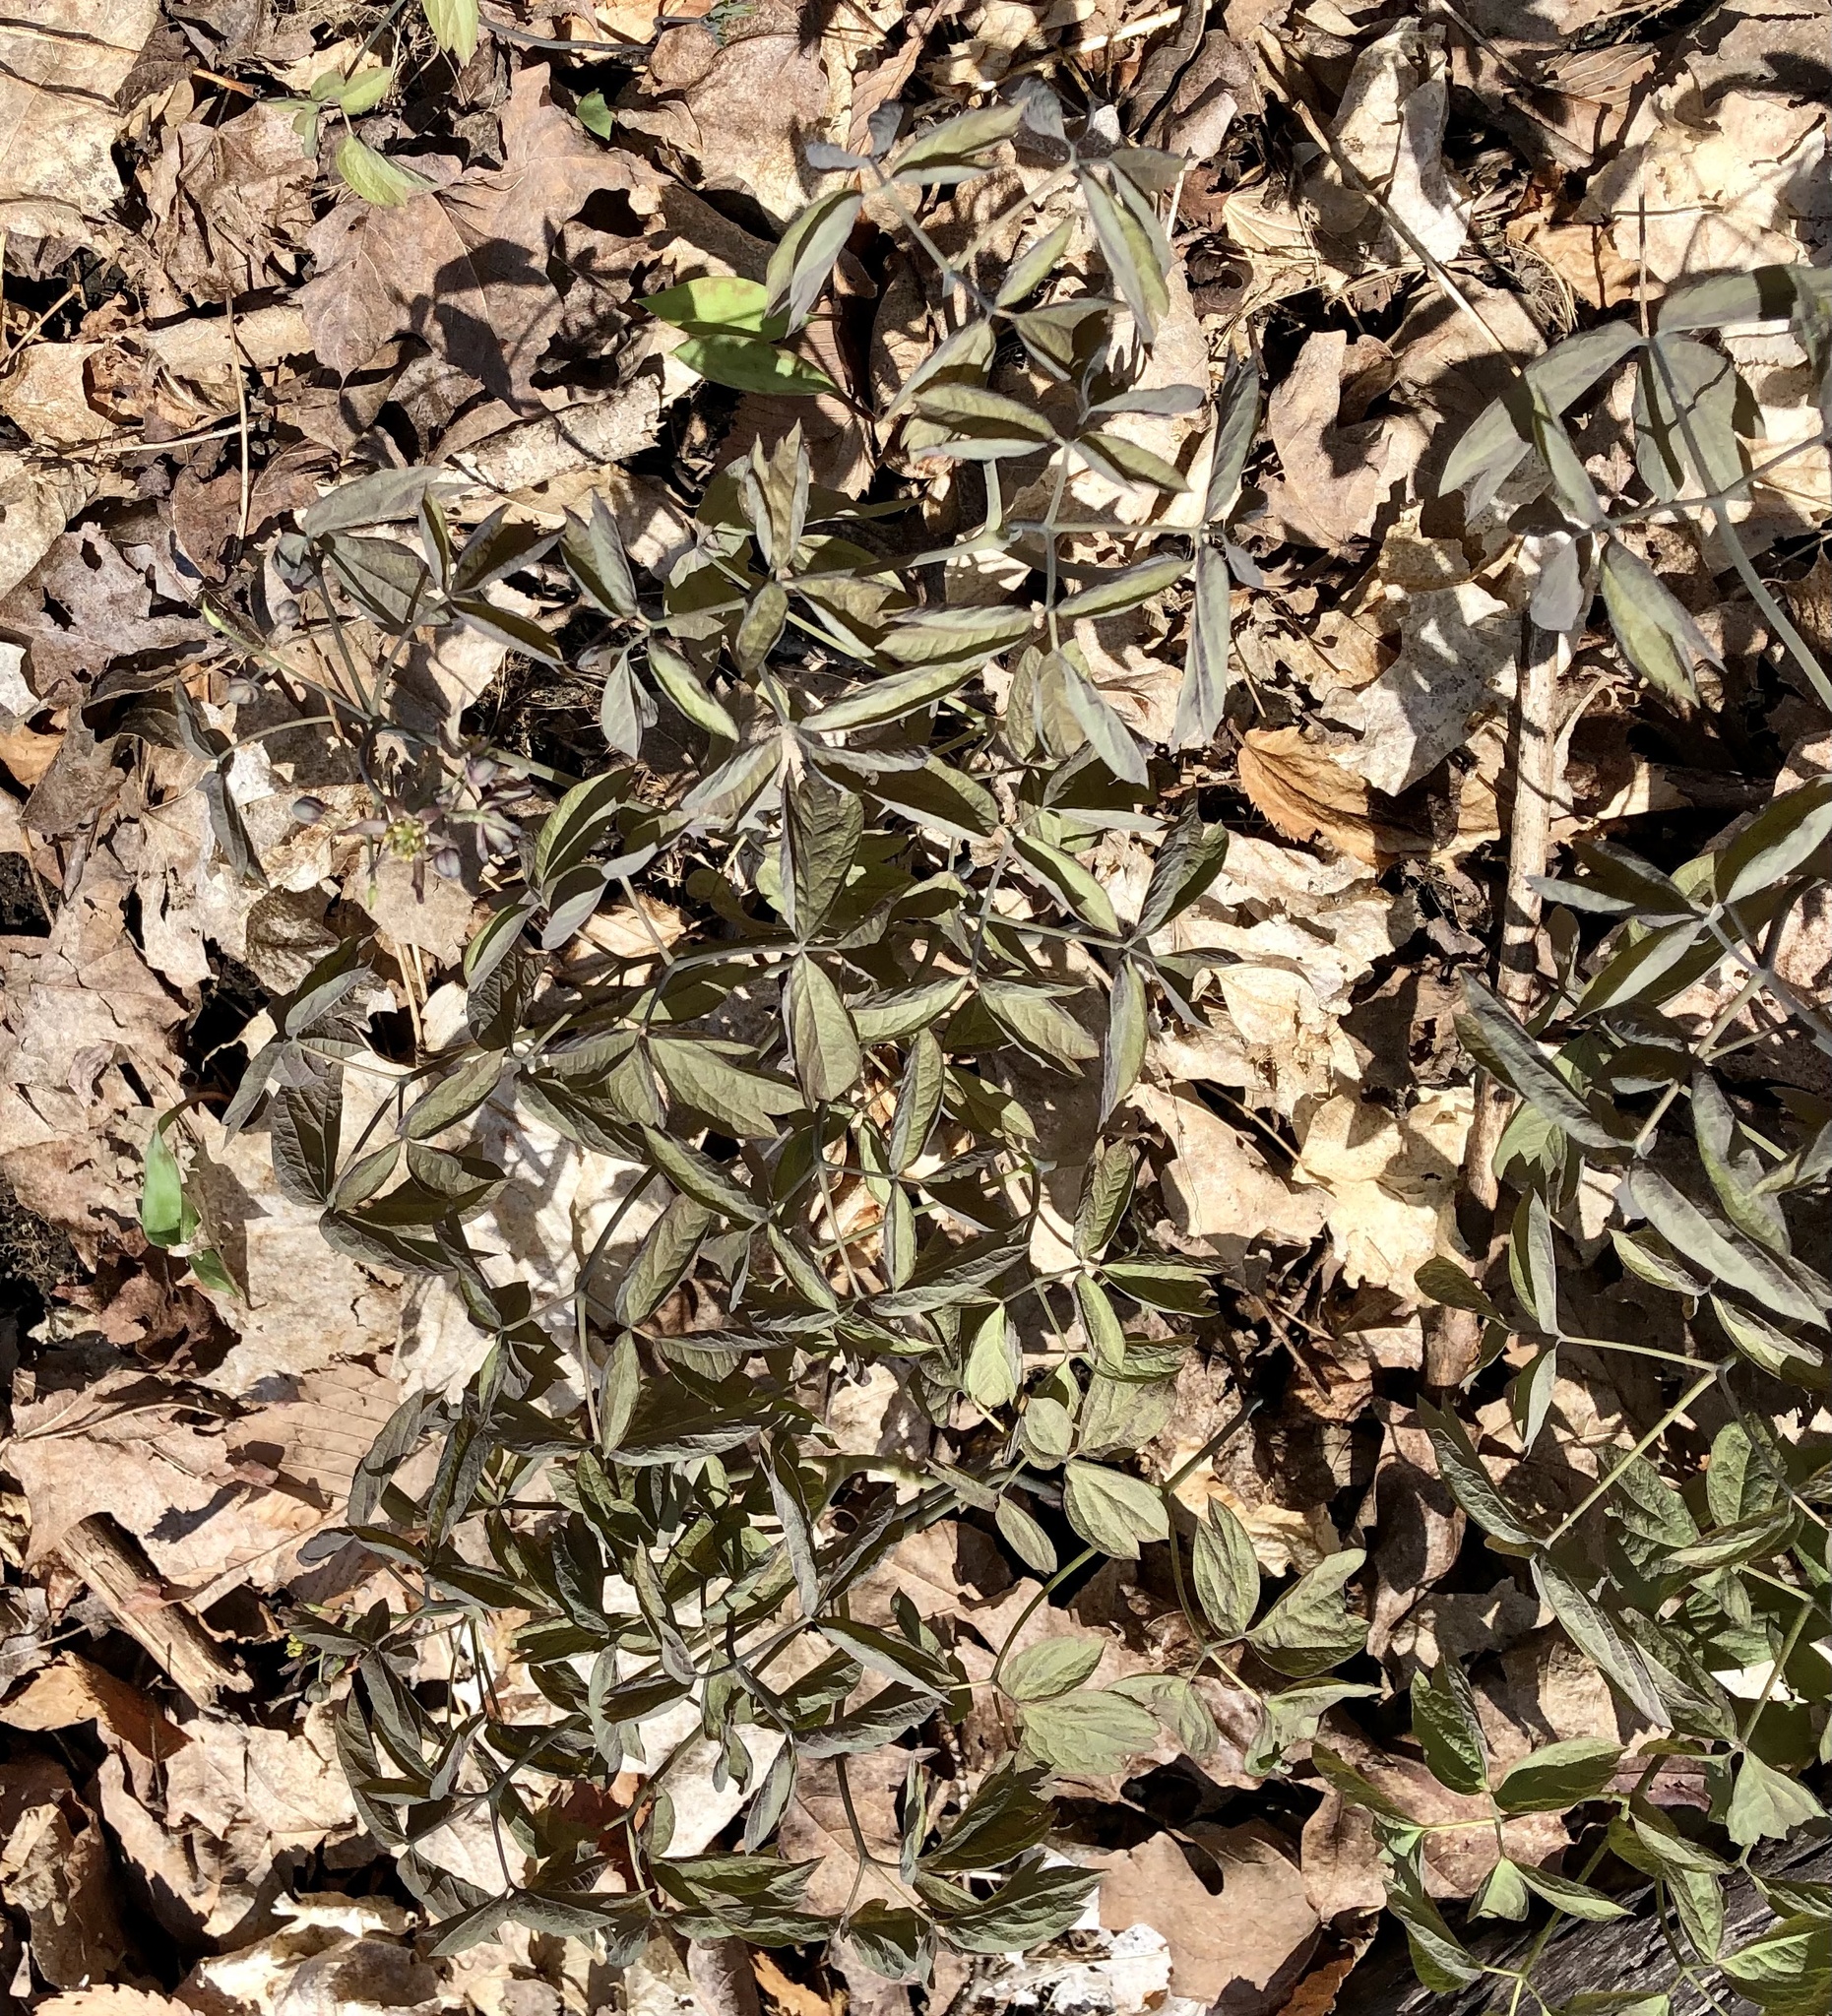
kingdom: Plantae
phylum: Tracheophyta
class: Magnoliopsida
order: Ranunculales
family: Berberidaceae
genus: Caulophyllum
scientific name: Caulophyllum giganteum
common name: Blue cohosh
